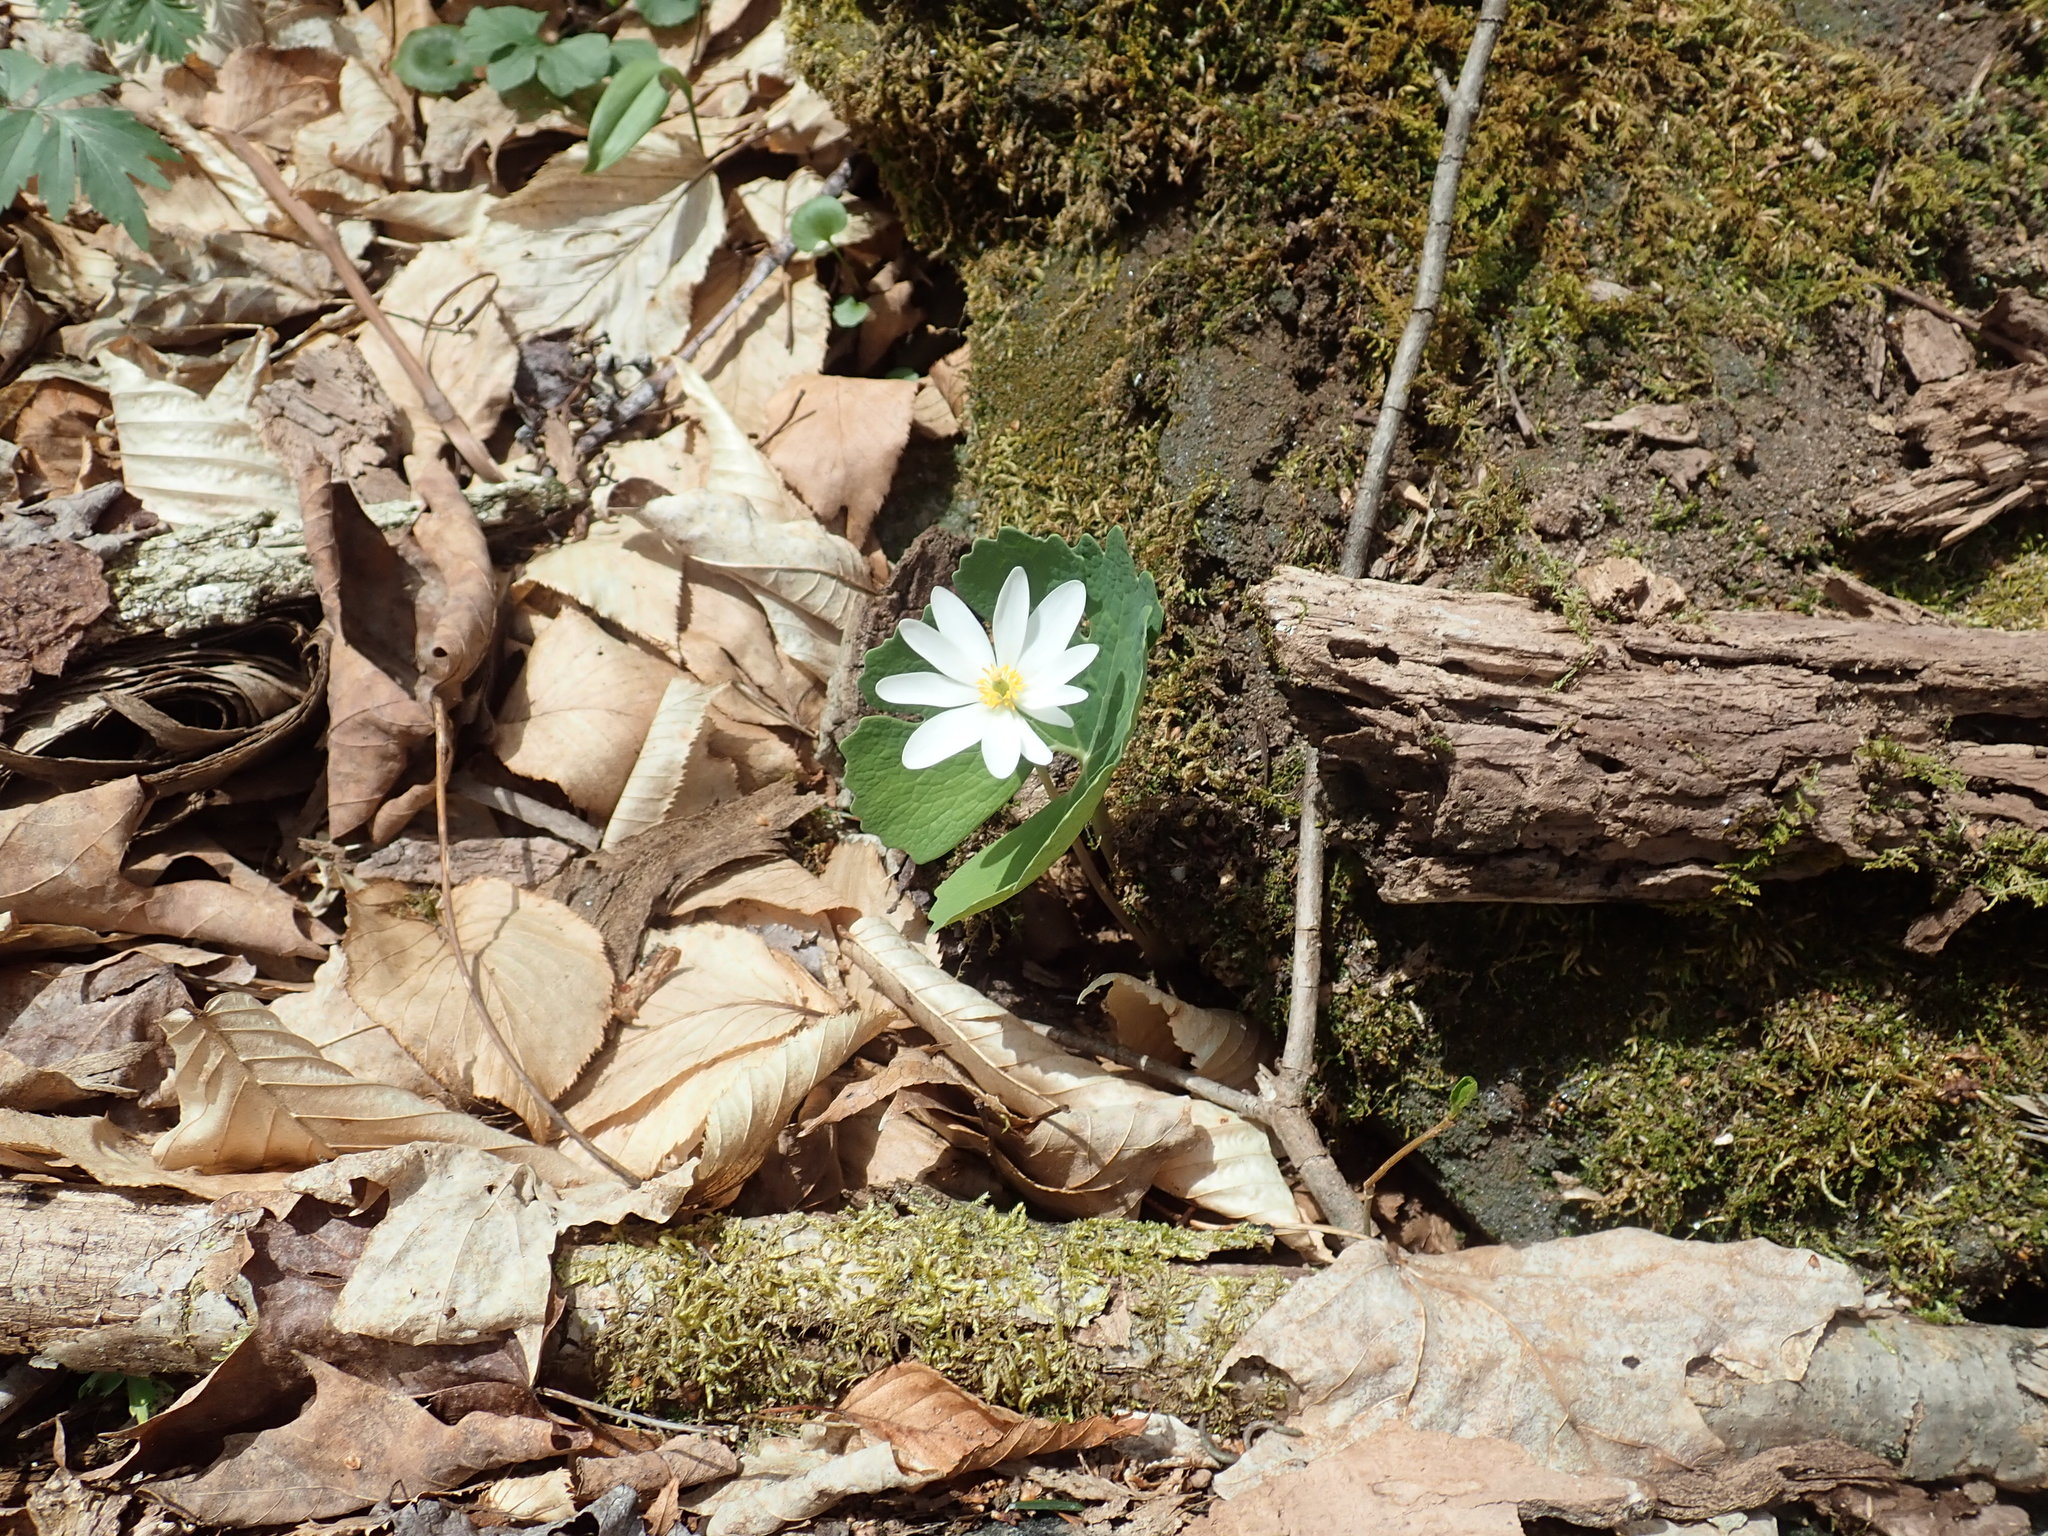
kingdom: Plantae
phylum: Tracheophyta
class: Magnoliopsida
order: Ranunculales
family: Papaveraceae
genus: Sanguinaria
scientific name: Sanguinaria canadensis
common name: Bloodroot
